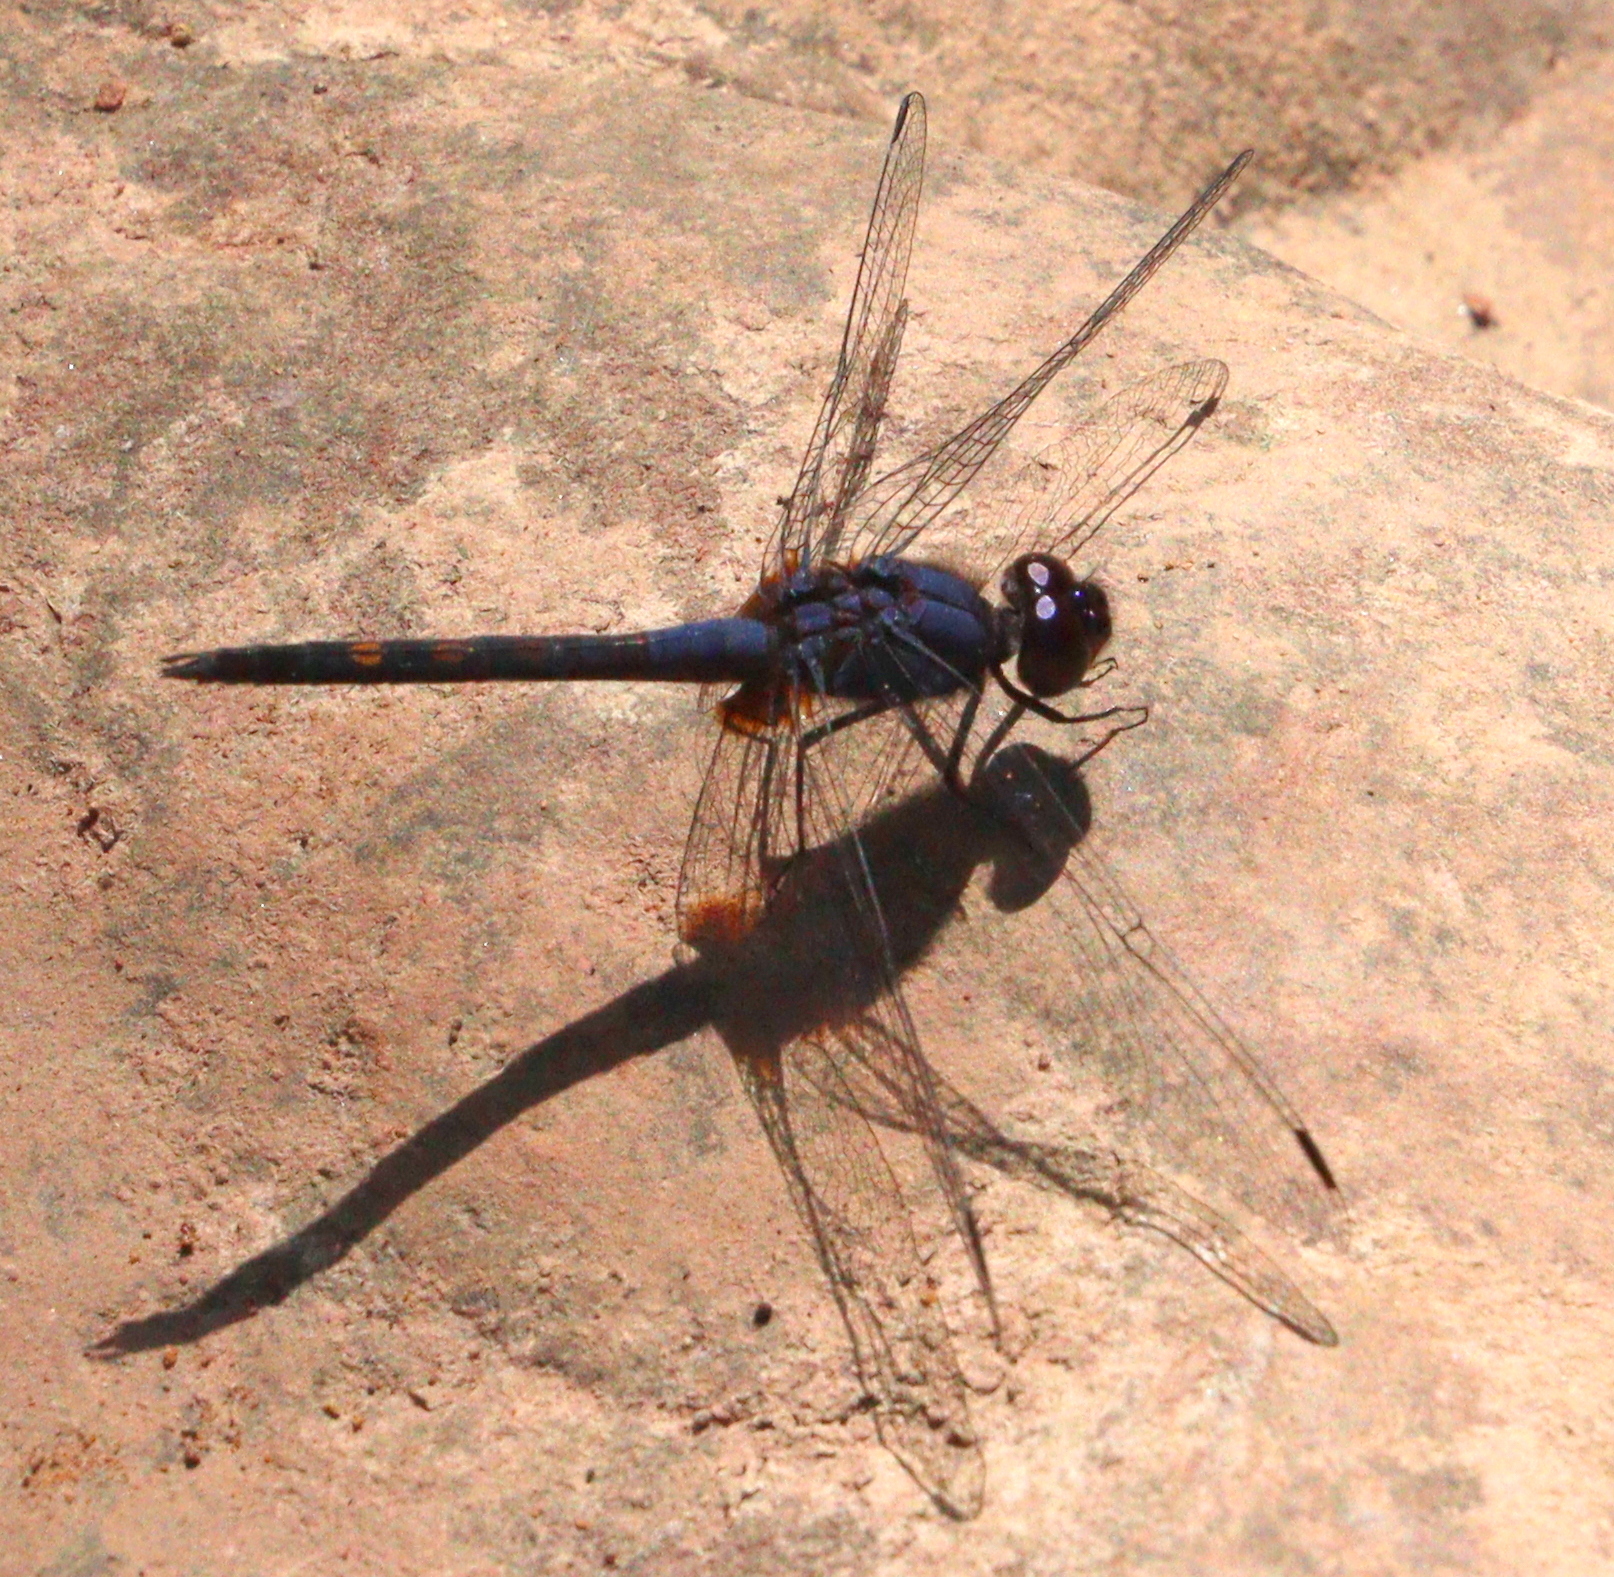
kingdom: Animalia
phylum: Arthropoda
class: Insecta
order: Odonata
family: Libellulidae
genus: Trithemis
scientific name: Trithemis festiva
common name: Indigo dropwing
